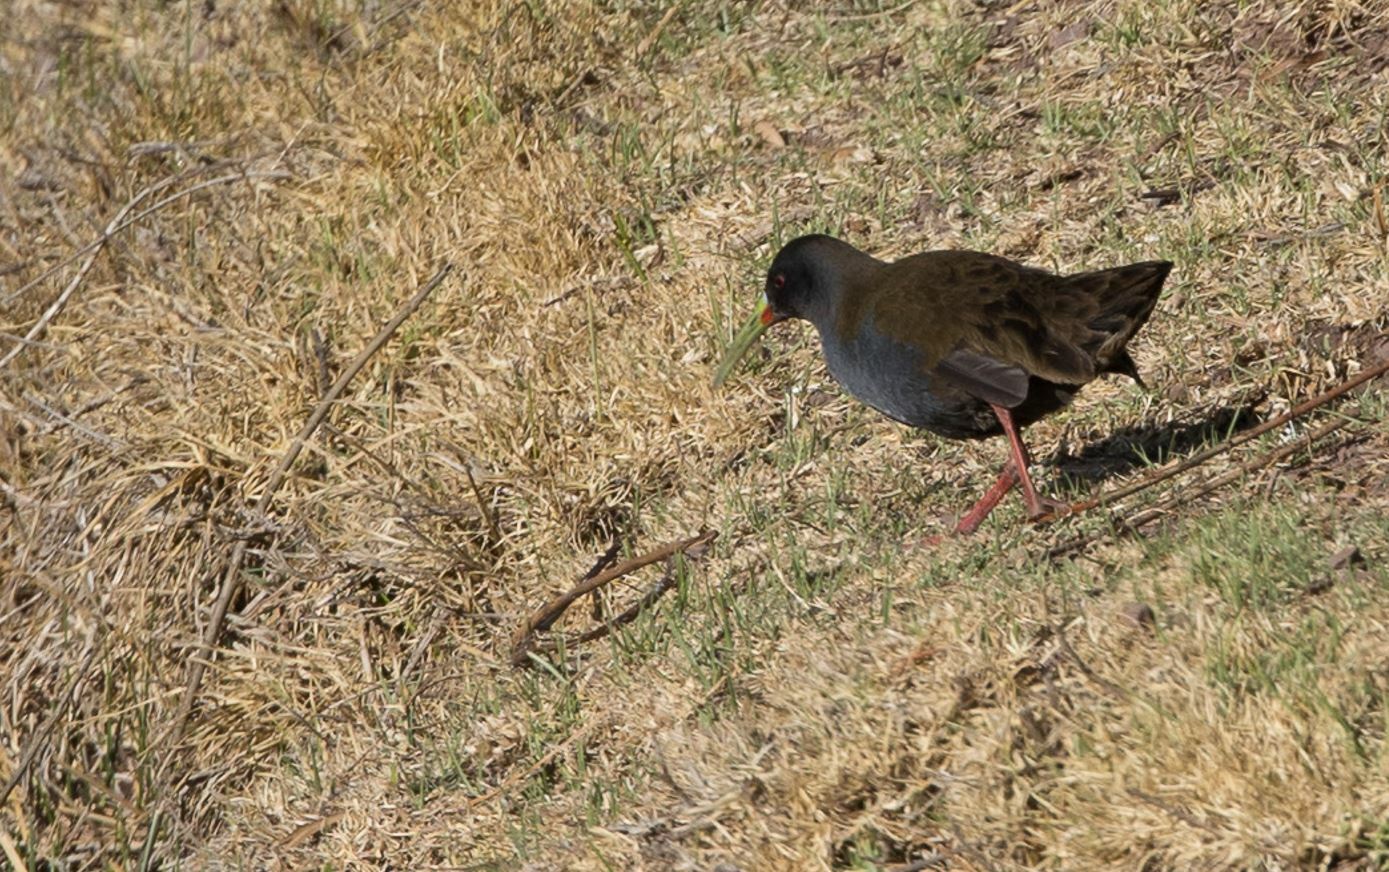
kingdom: Animalia
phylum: Chordata
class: Aves
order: Gruiformes
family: Rallidae
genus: Pardirallus
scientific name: Pardirallus sanguinolentus
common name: Plumbeous rail
